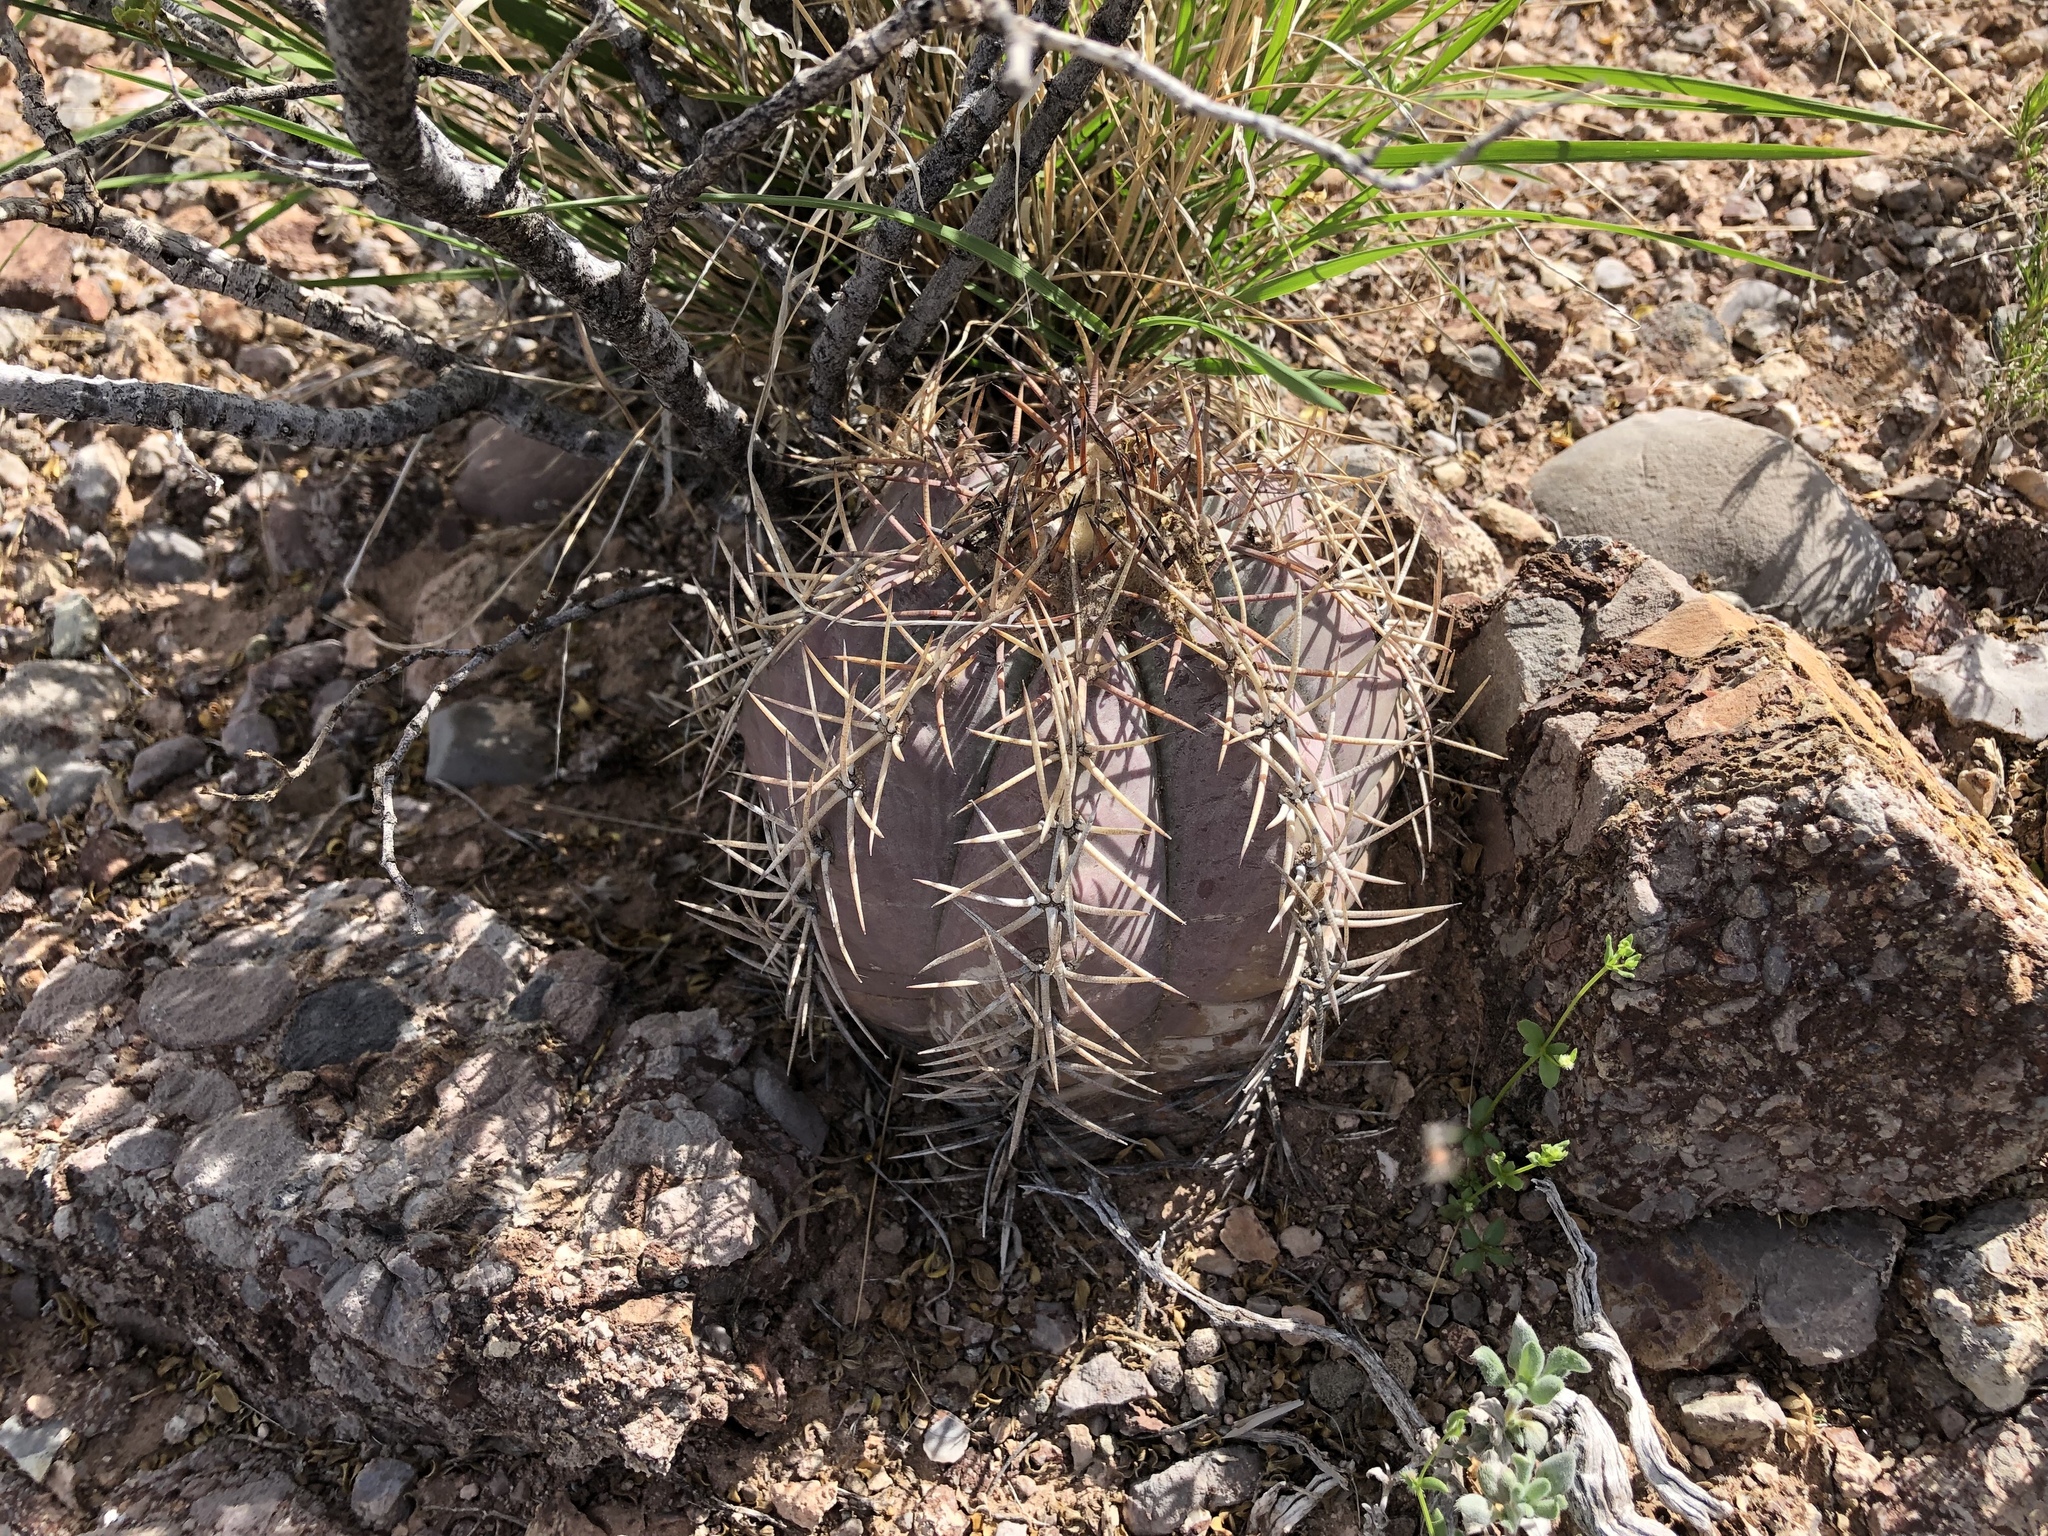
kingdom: Plantae
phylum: Tracheophyta
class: Magnoliopsida
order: Caryophyllales
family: Cactaceae
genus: Echinocactus
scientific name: Echinocactus horizonthalonius
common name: Devilshead
